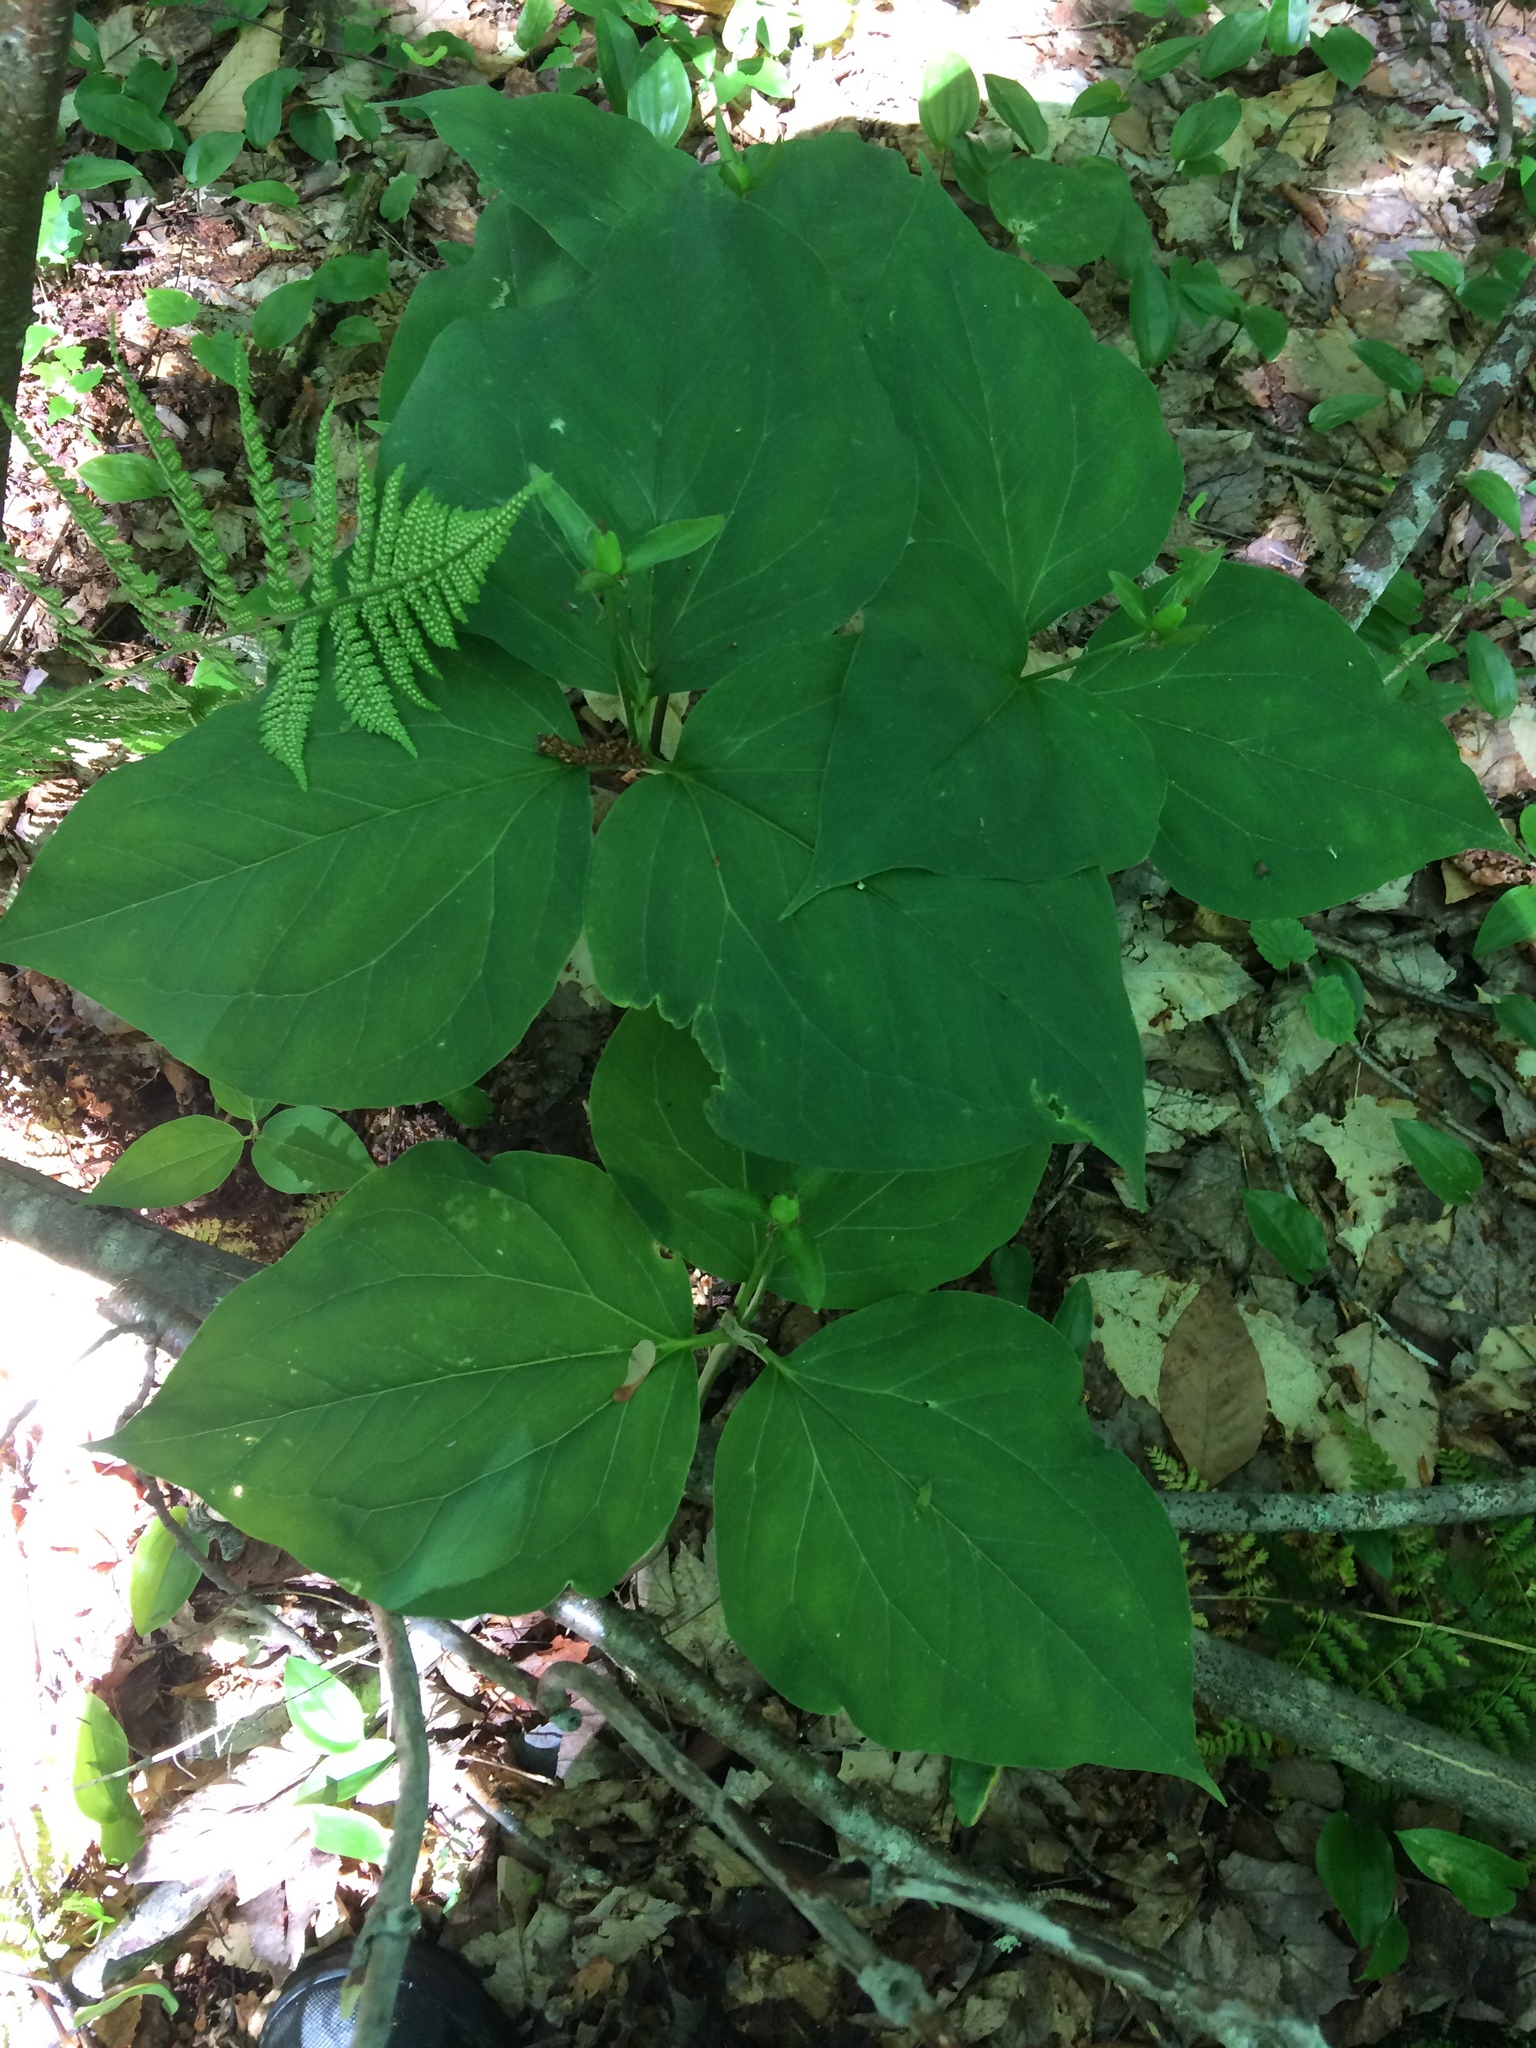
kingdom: Plantae
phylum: Tracheophyta
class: Liliopsida
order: Liliales
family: Melanthiaceae
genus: Trillium
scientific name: Trillium undulatum
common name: Paint trillium
